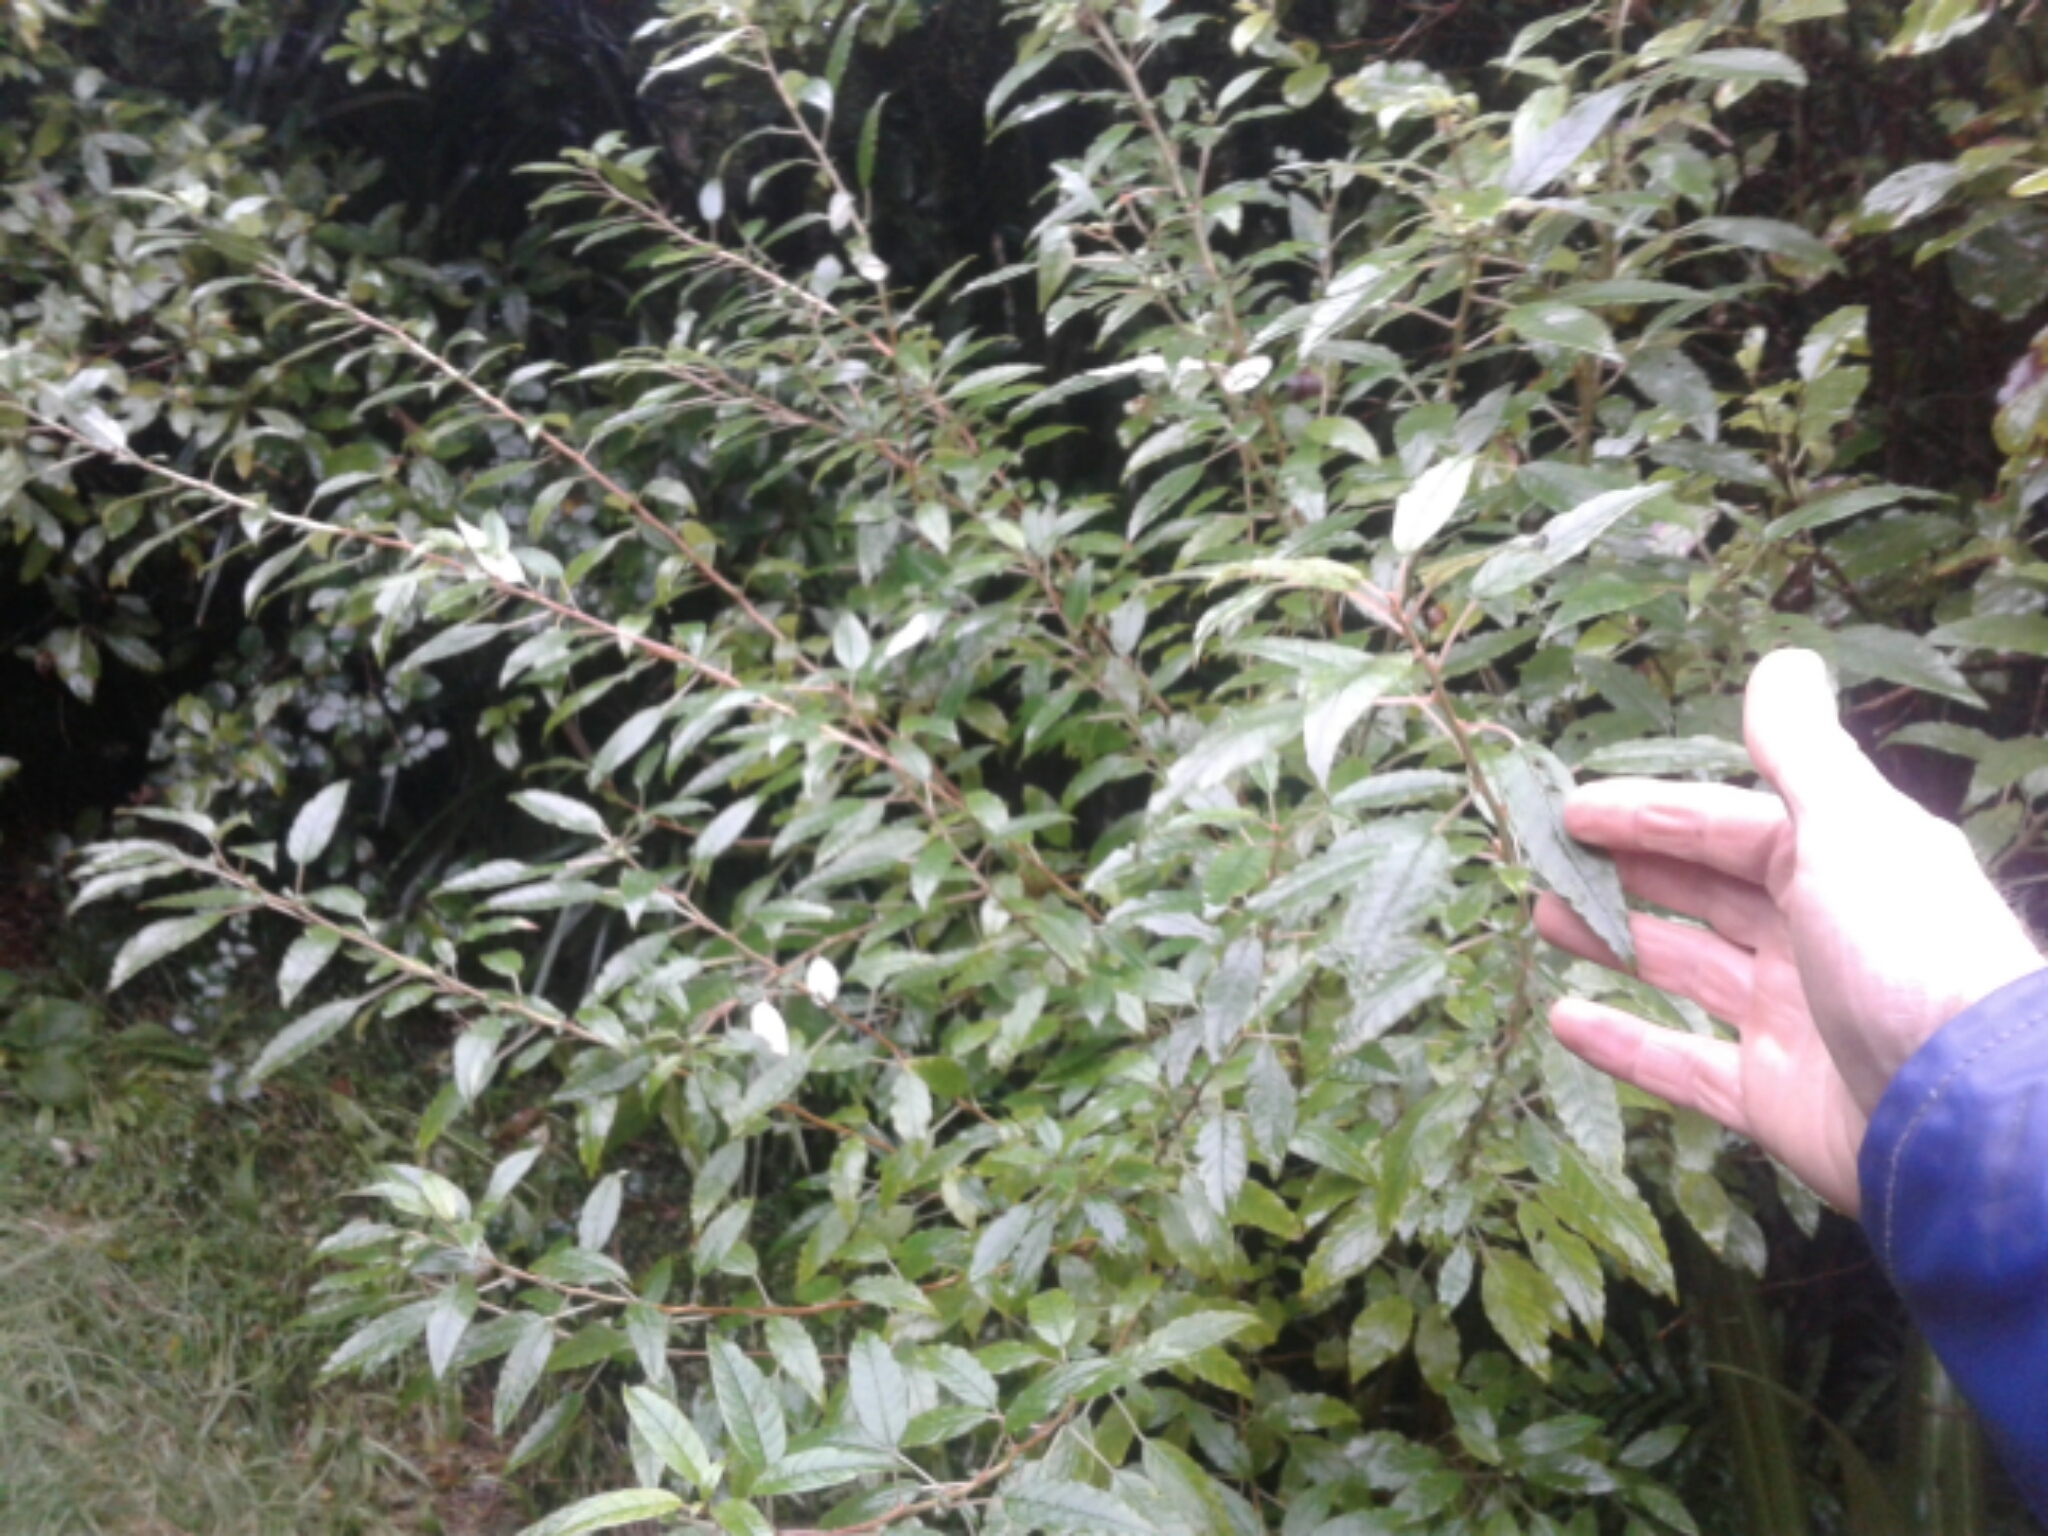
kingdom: Plantae
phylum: Tracheophyta
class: Magnoliopsida
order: Myrtales
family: Onagraceae
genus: Fuchsia
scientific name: Fuchsia excorticata
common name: Tree fuchsia
